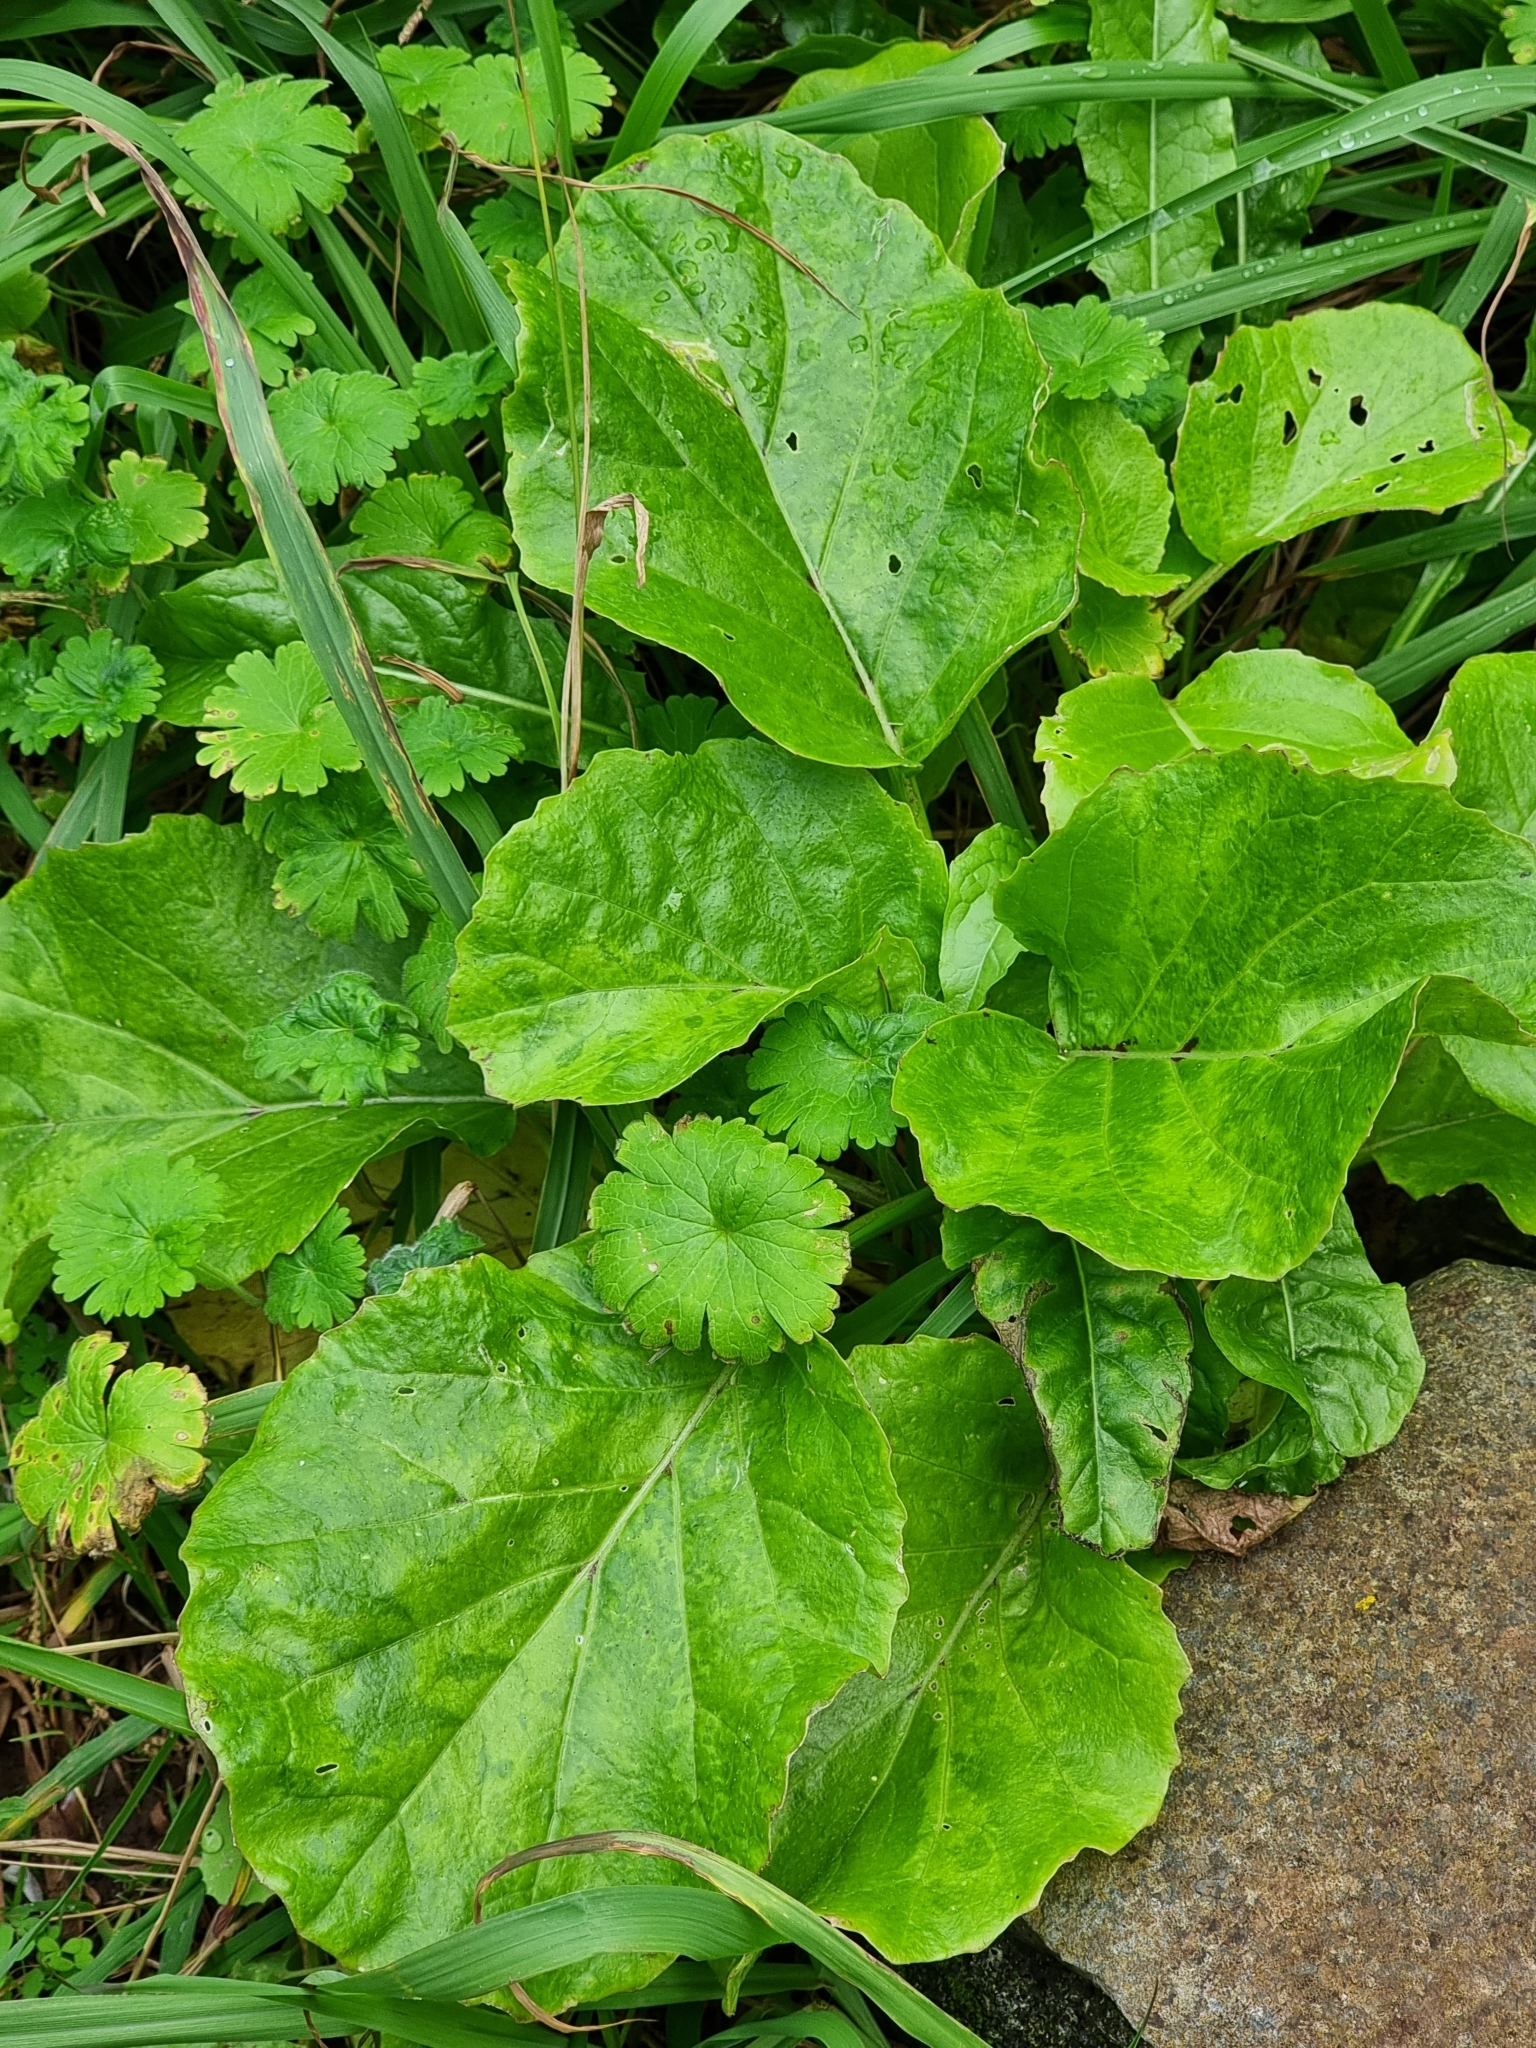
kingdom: Plantae
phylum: Tracheophyta
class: Magnoliopsida
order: Brassicales
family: Brassicaceae
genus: Sinapidendron
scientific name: Sinapidendron rupestre
